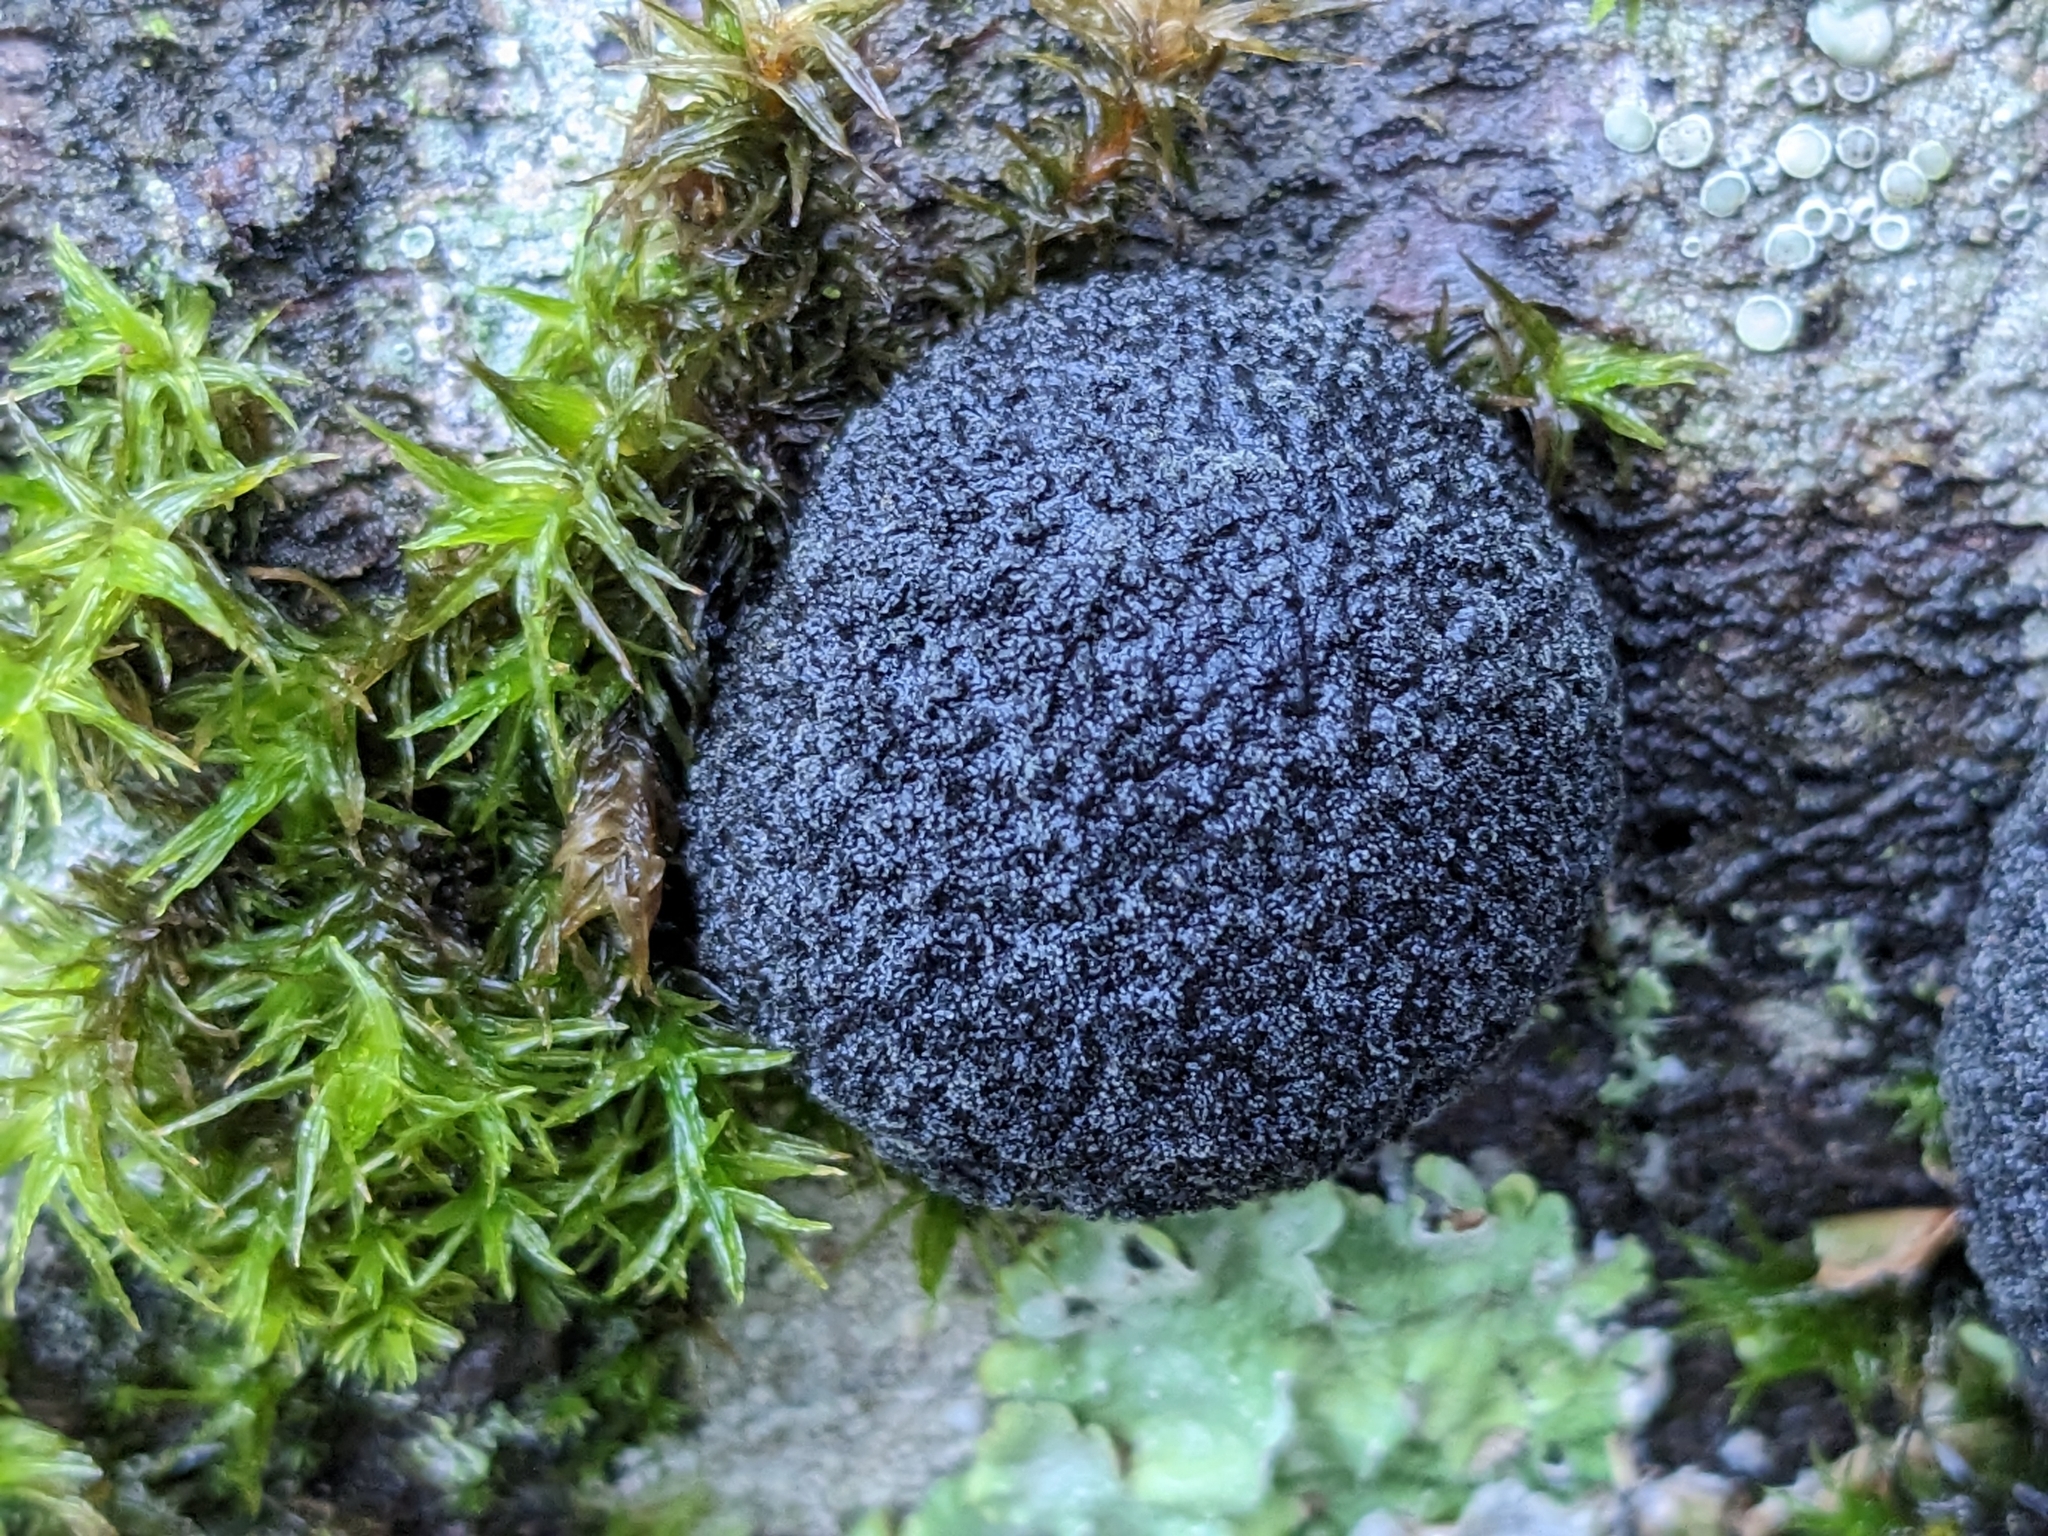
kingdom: Fungi
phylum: Ascomycota
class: Sordariomycetes
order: Xylariales
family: Hypoxylaceae
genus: Annulohypoxylon
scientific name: Annulohypoxylon thouarsianum
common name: Cramp balls
